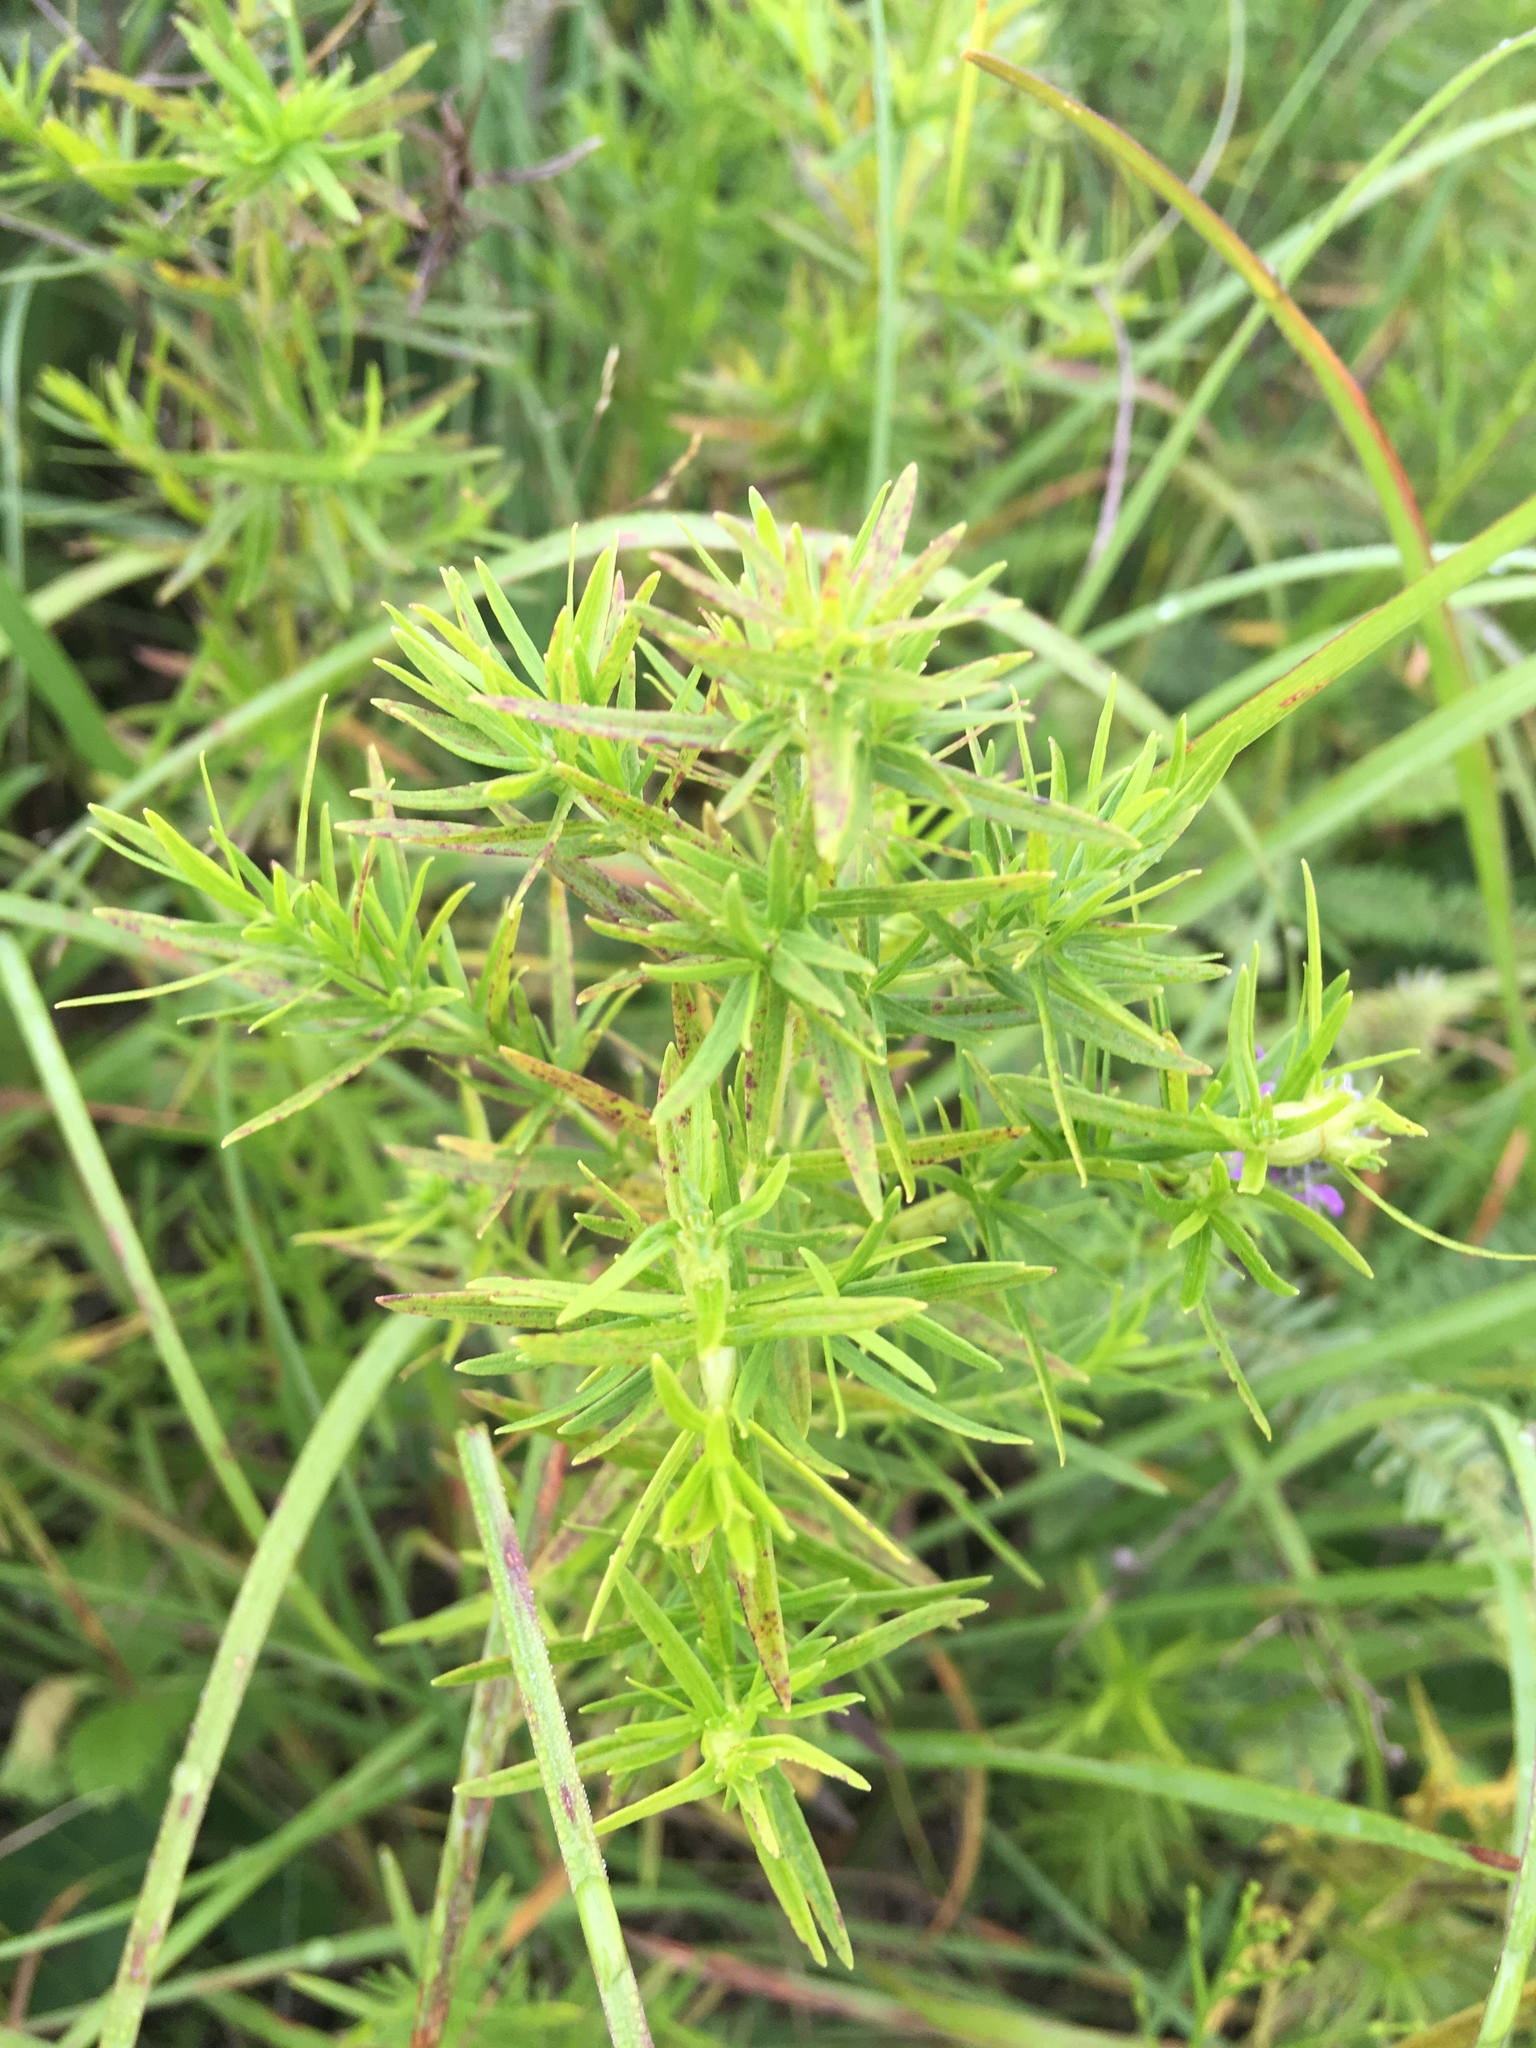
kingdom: Plantae
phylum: Tracheophyta
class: Magnoliopsida
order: Lamiales
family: Lamiaceae
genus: Pycnanthemum
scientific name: Pycnanthemum virginianum
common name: Virginia mountain-mint
